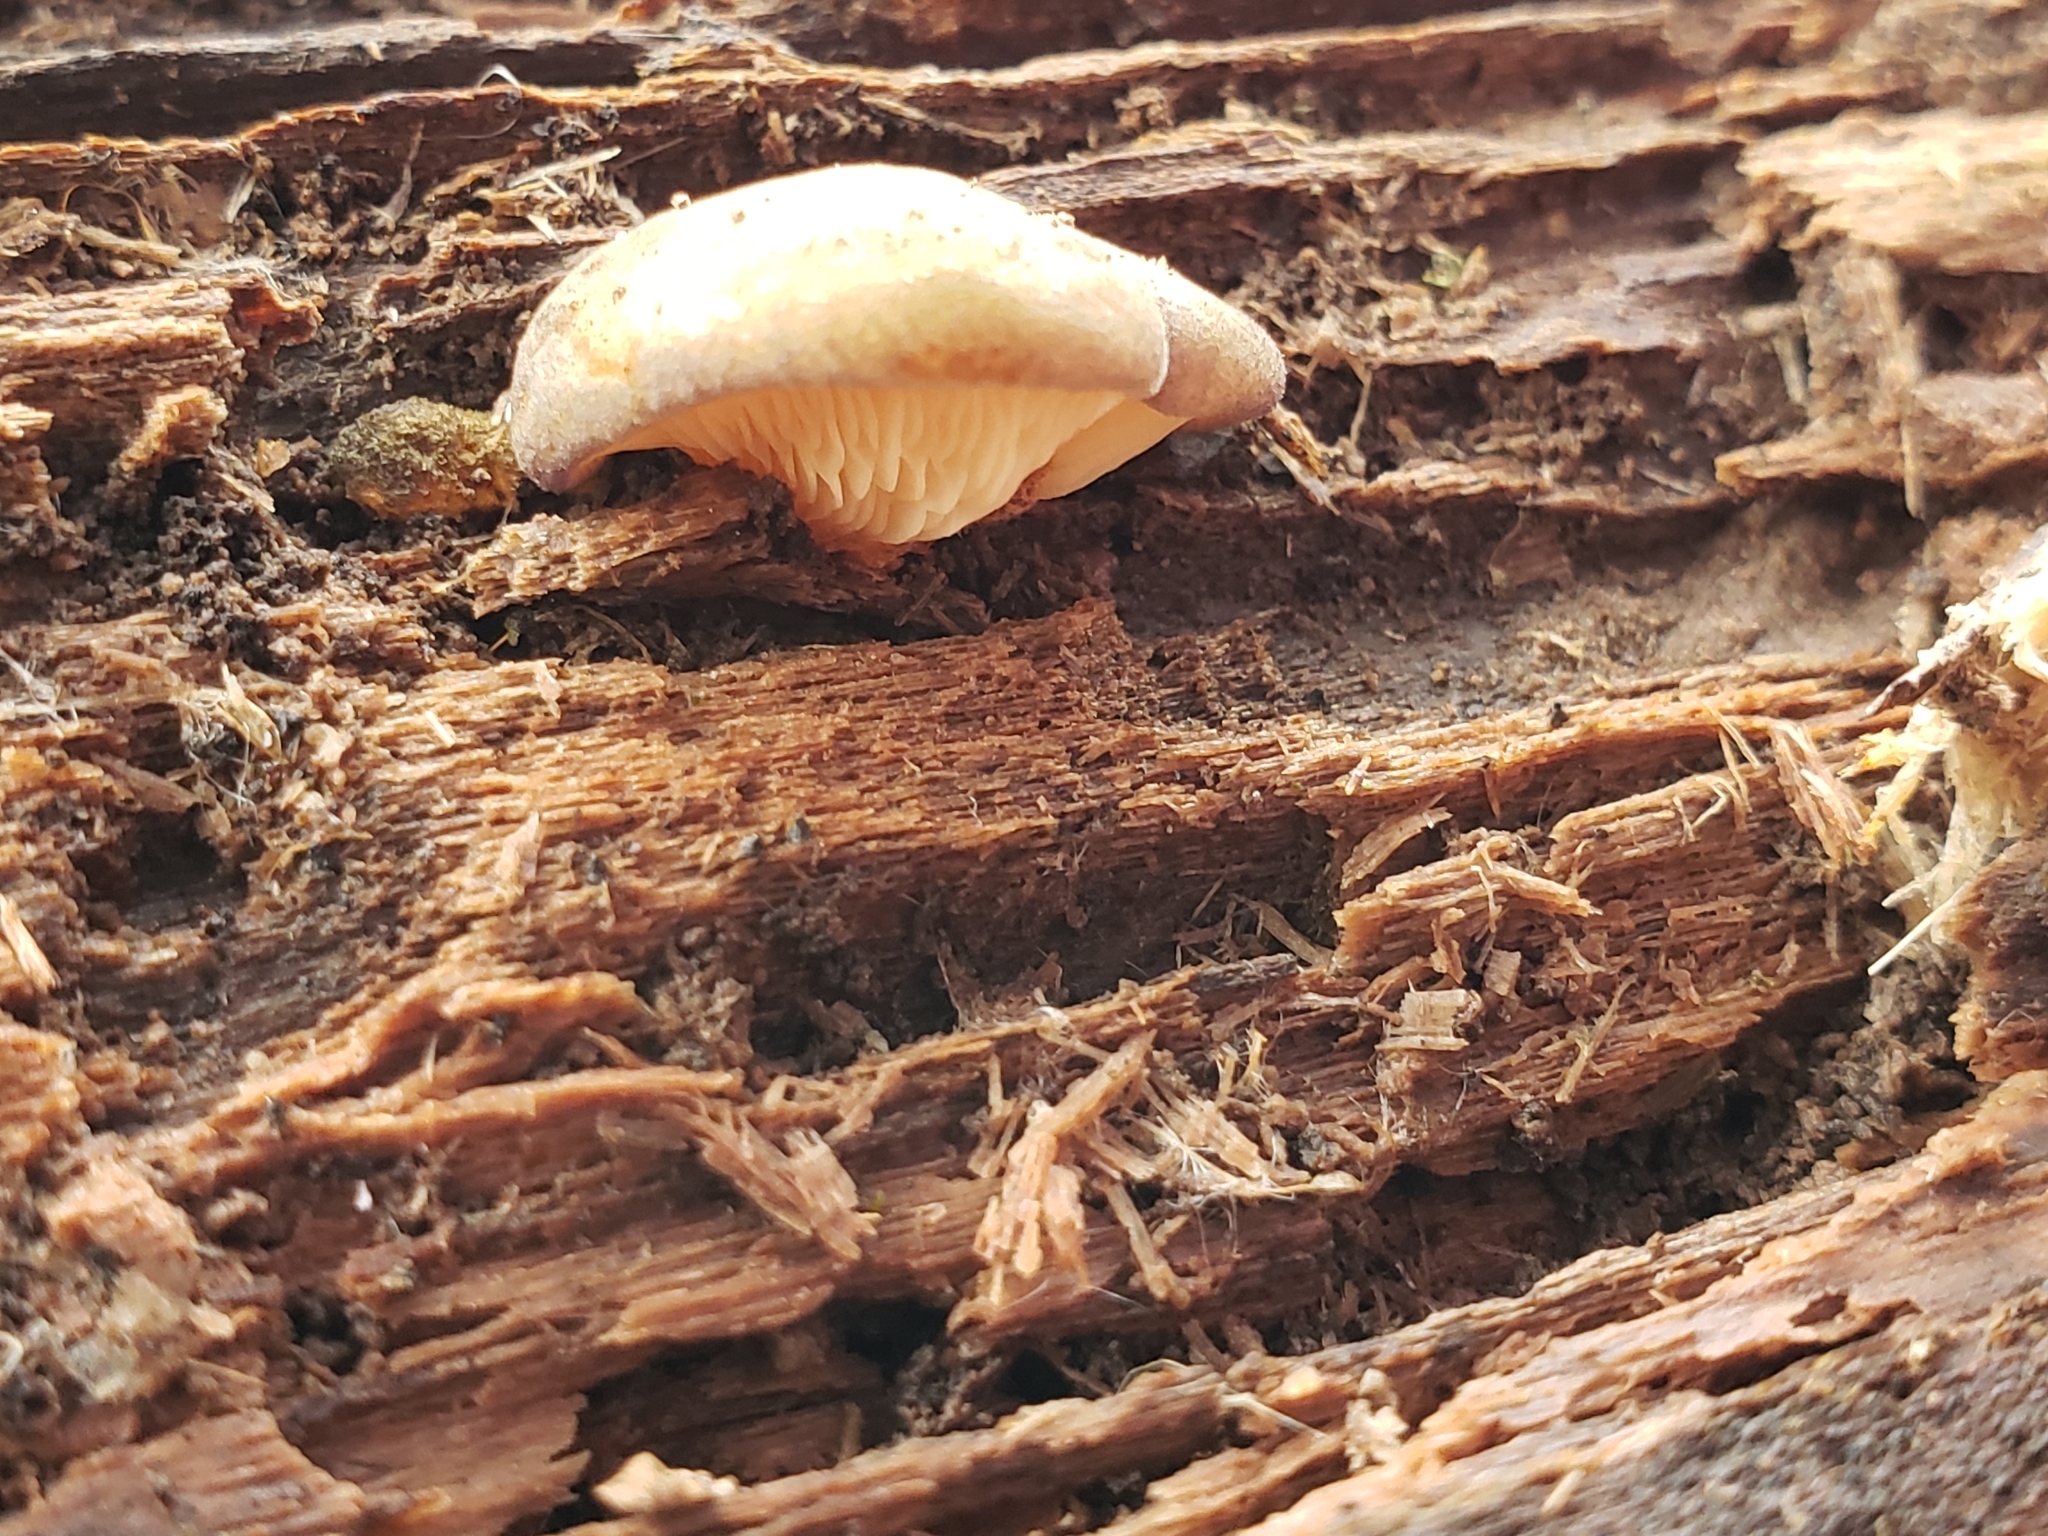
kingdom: Fungi
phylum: Basidiomycota
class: Agaricomycetes
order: Agaricales
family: Sarcomyxaceae
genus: Sarcomyxa
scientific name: Sarcomyxa serotina
